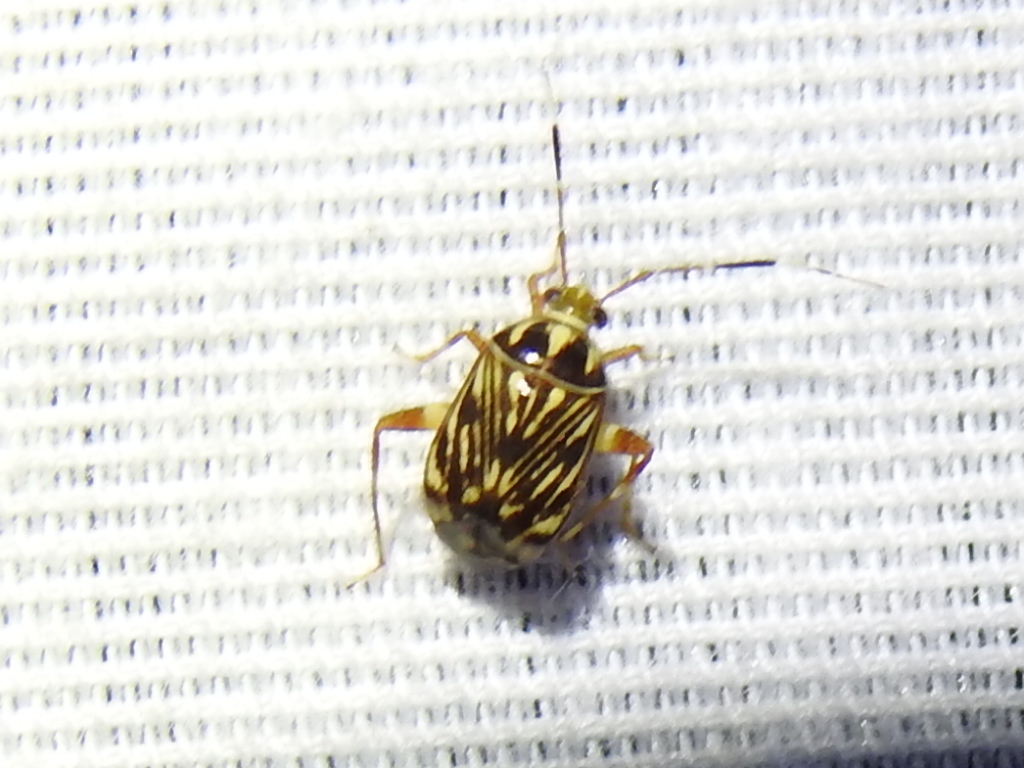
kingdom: Animalia
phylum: Arthropoda
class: Insecta
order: Hemiptera
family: Miridae
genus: Taedia
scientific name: Taedia virgulata
